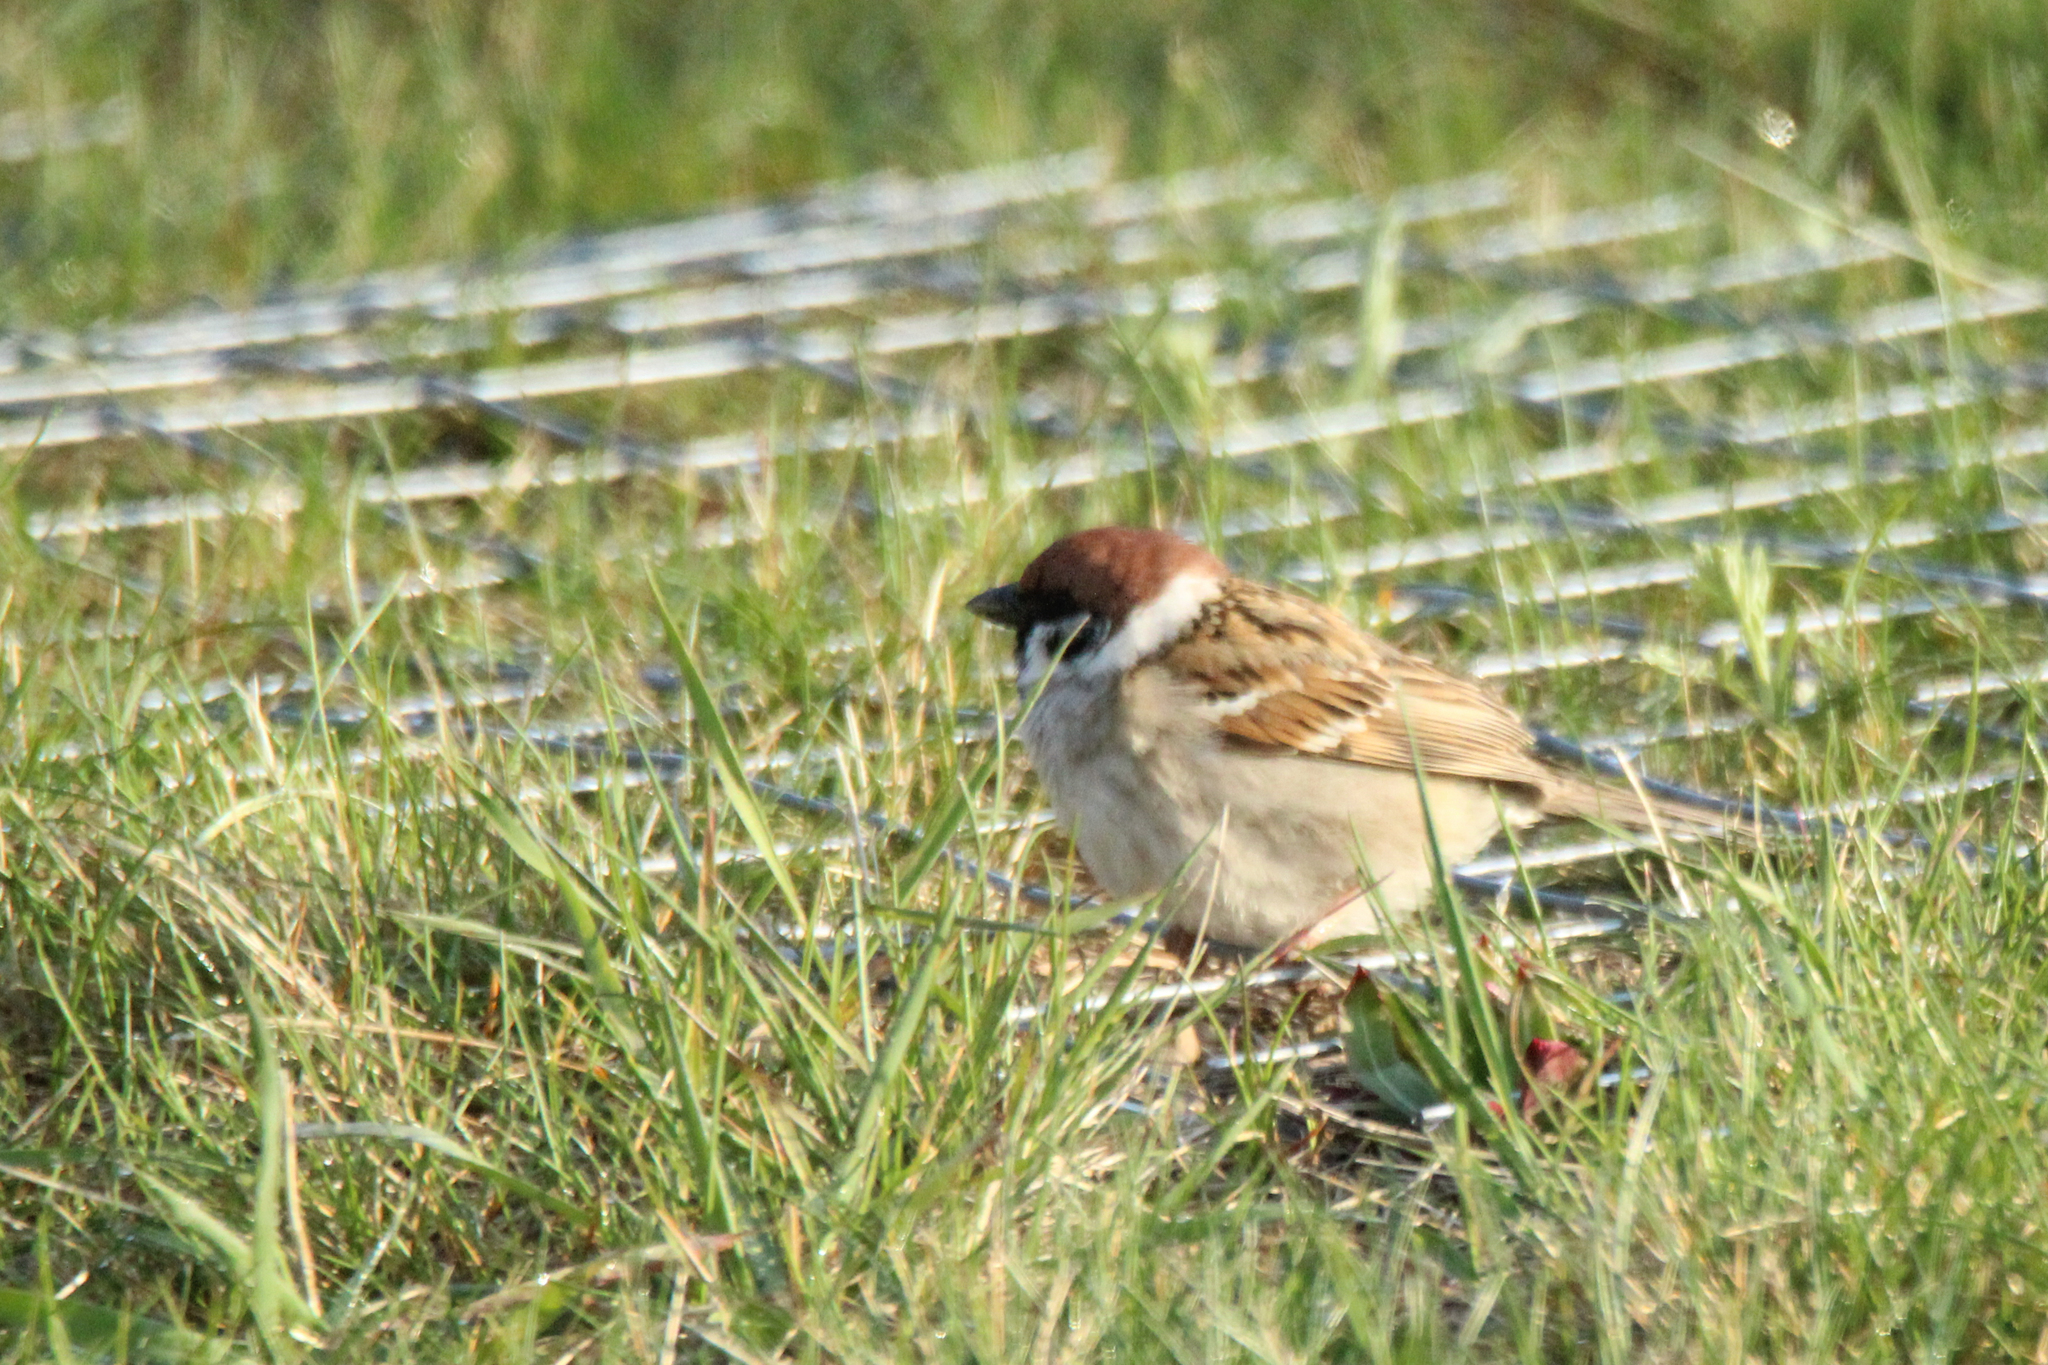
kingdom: Animalia
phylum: Chordata
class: Aves
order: Passeriformes
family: Passeridae
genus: Passer
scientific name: Passer montanus
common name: Eurasian tree sparrow
